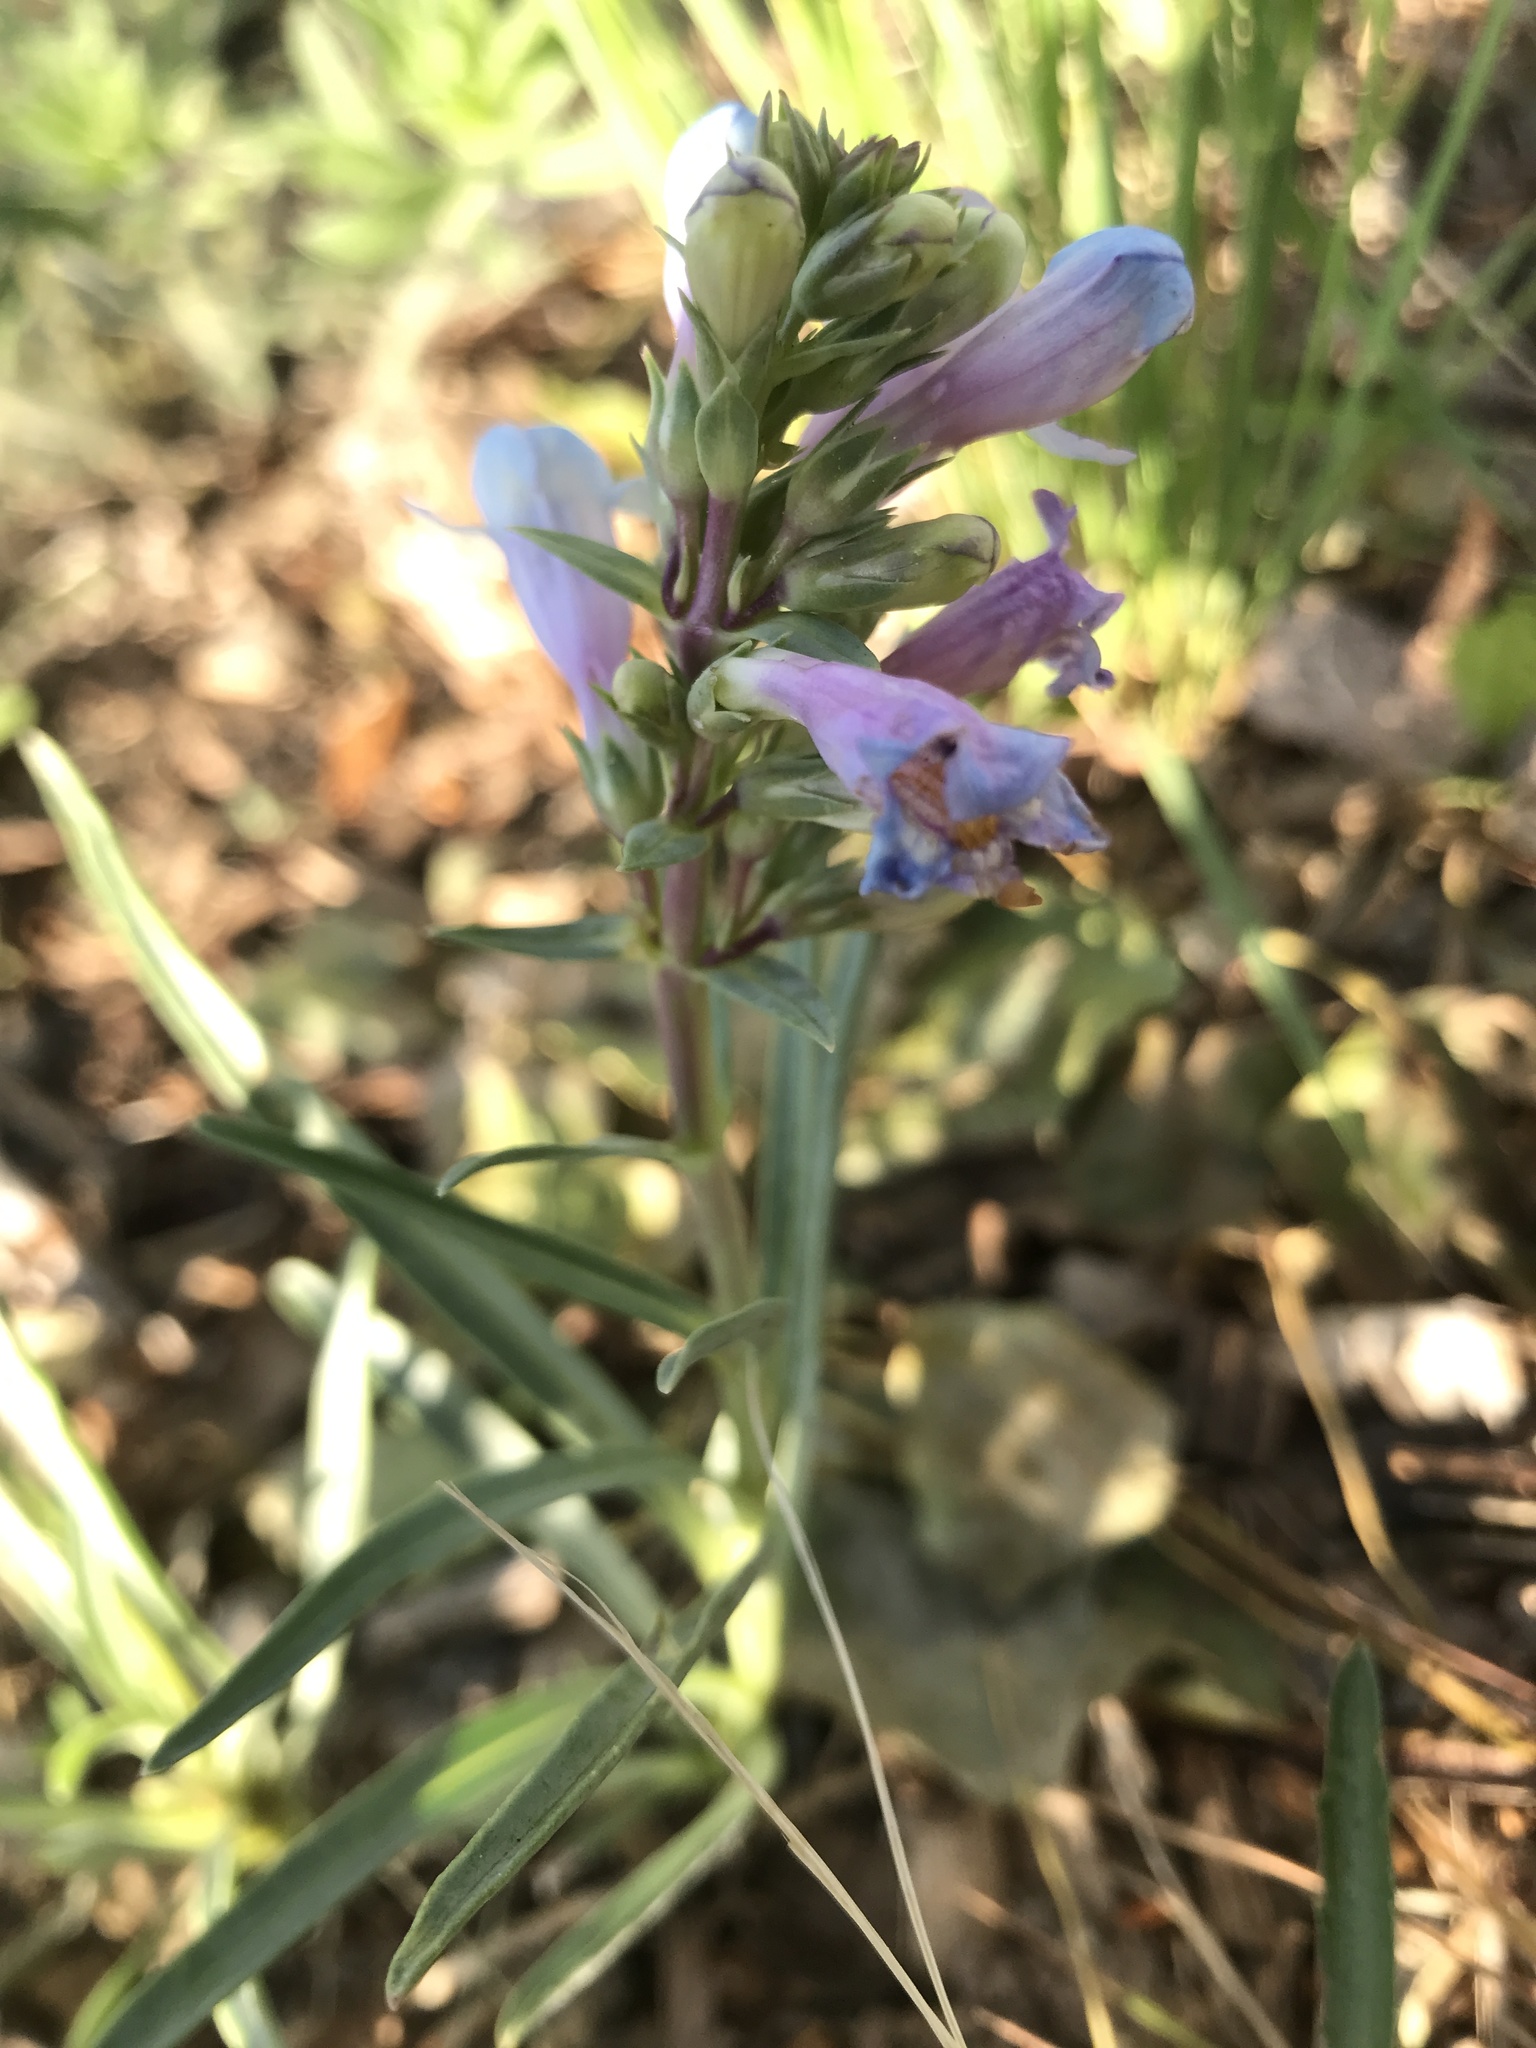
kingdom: Plantae
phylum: Tracheophyta
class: Magnoliopsida
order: Lamiales
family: Plantaginaceae
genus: Penstemon
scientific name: Penstemon angustifolius
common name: Narrow beardtongue
